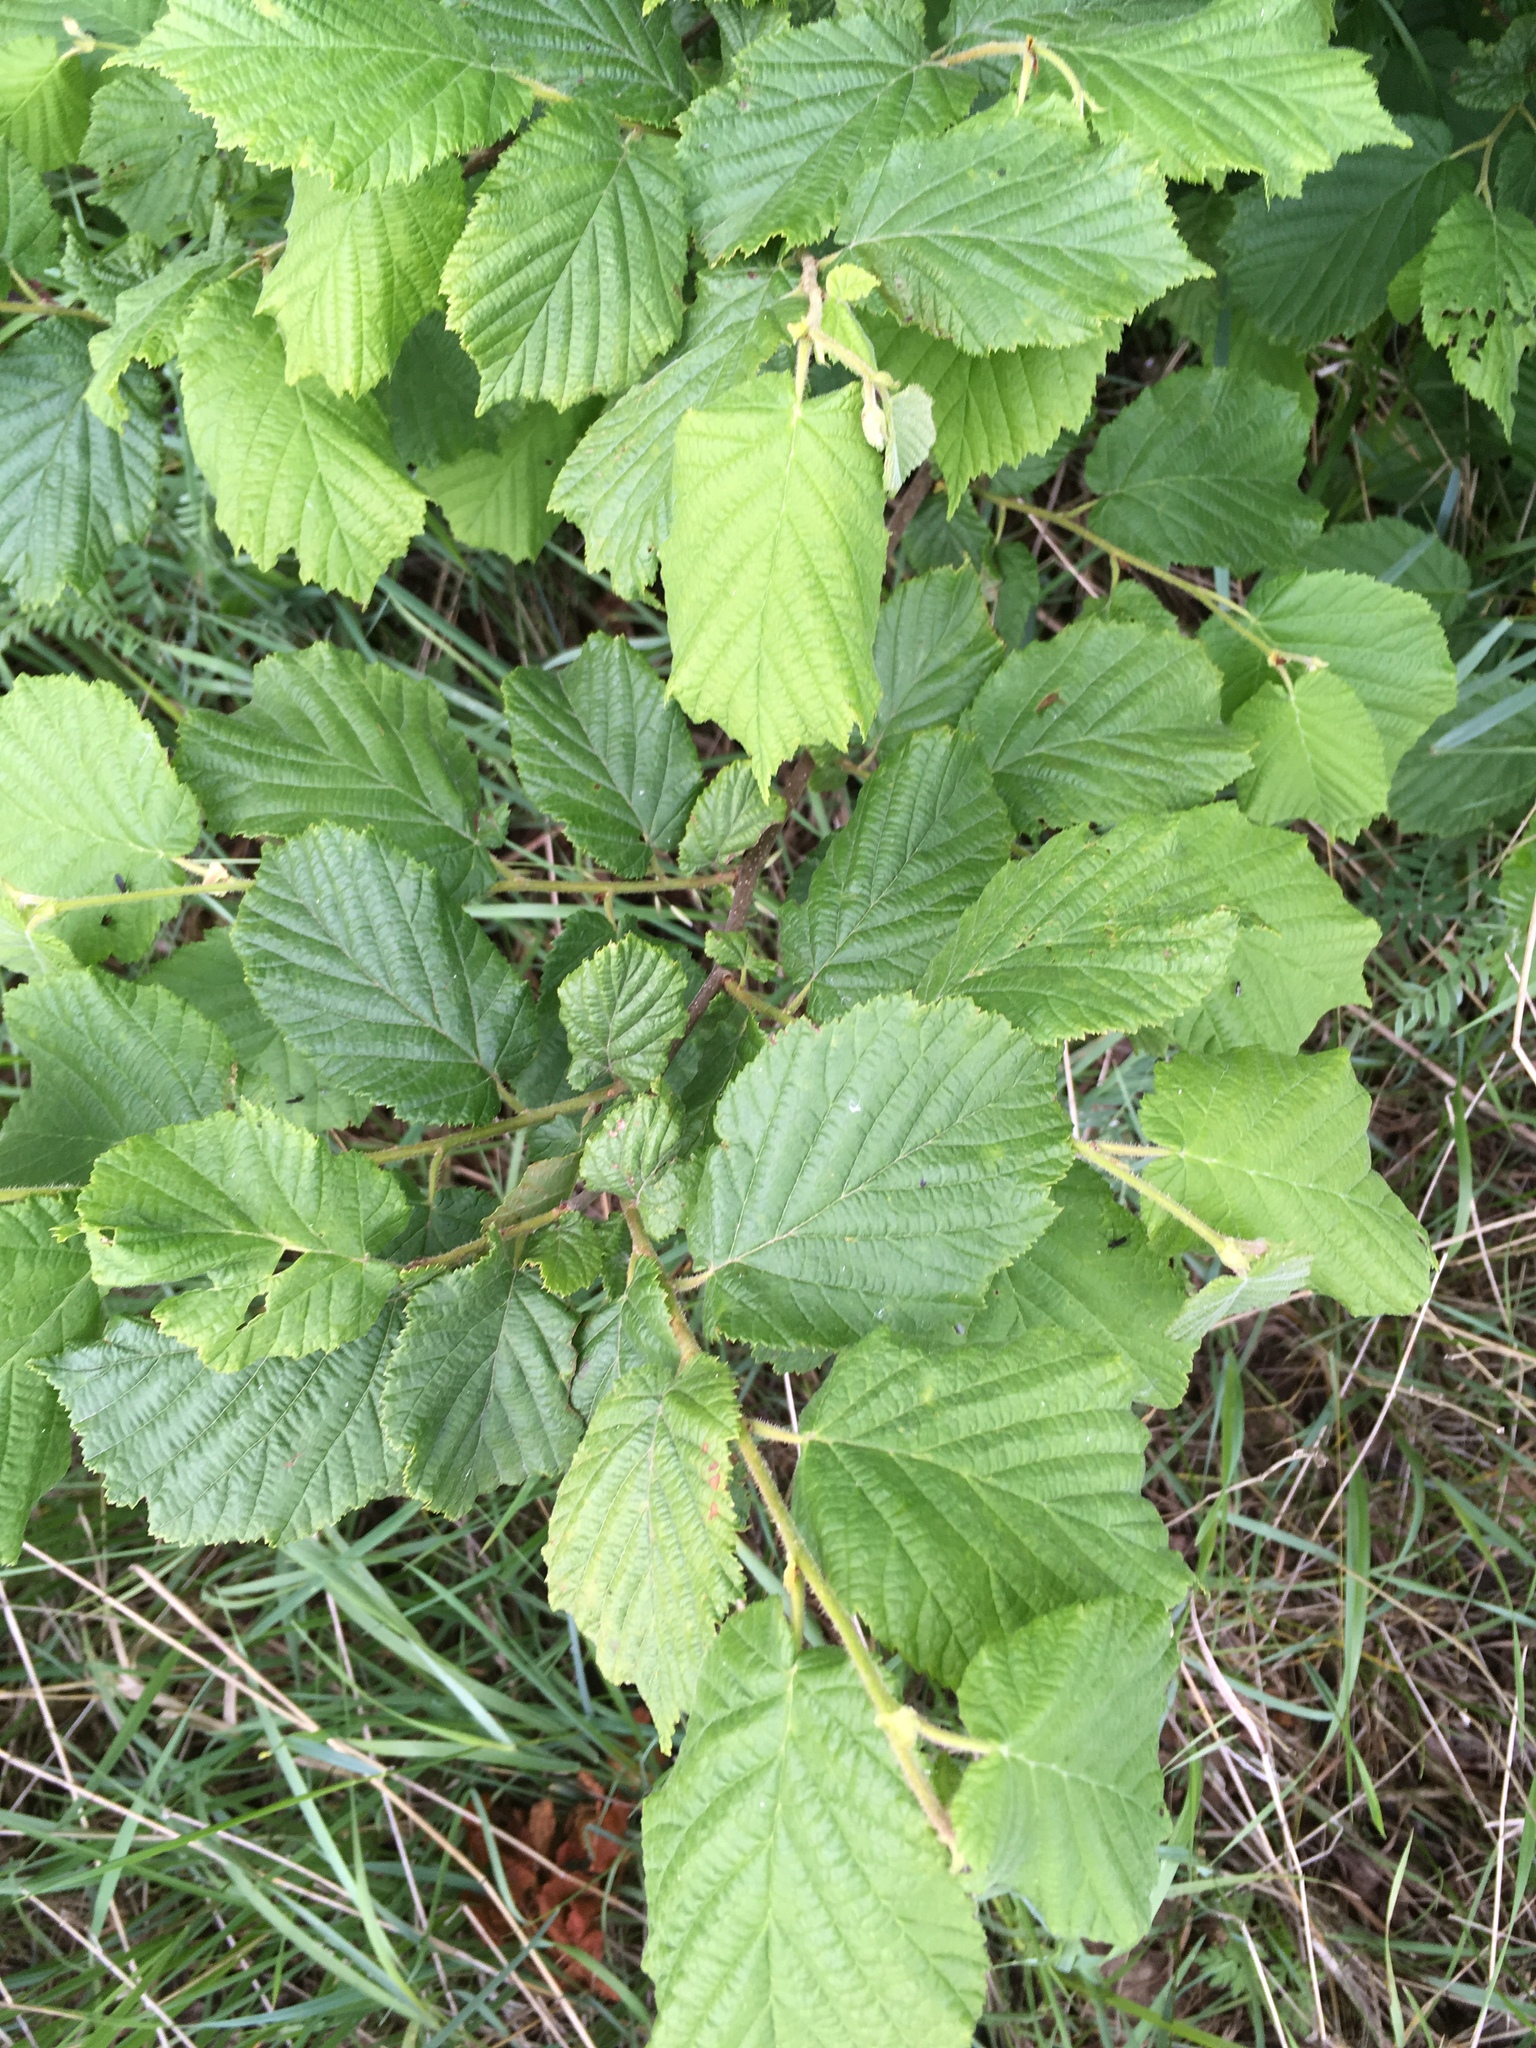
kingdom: Plantae
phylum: Tracheophyta
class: Magnoliopsida
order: Fagales
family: Betulaceae
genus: Corylus
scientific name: Corylus avellana
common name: European hazel
